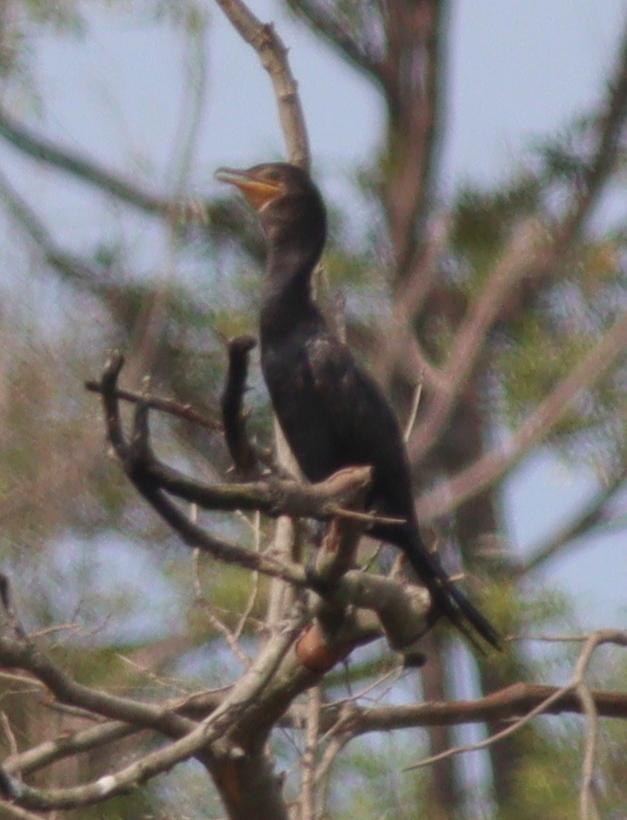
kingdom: Animalia
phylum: Chordata
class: Aves
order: Suliformes
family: Phalacrocoracidae
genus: Phalacrocorax
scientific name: Phalacrocorax brasilianus
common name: Neotropic cormorant
